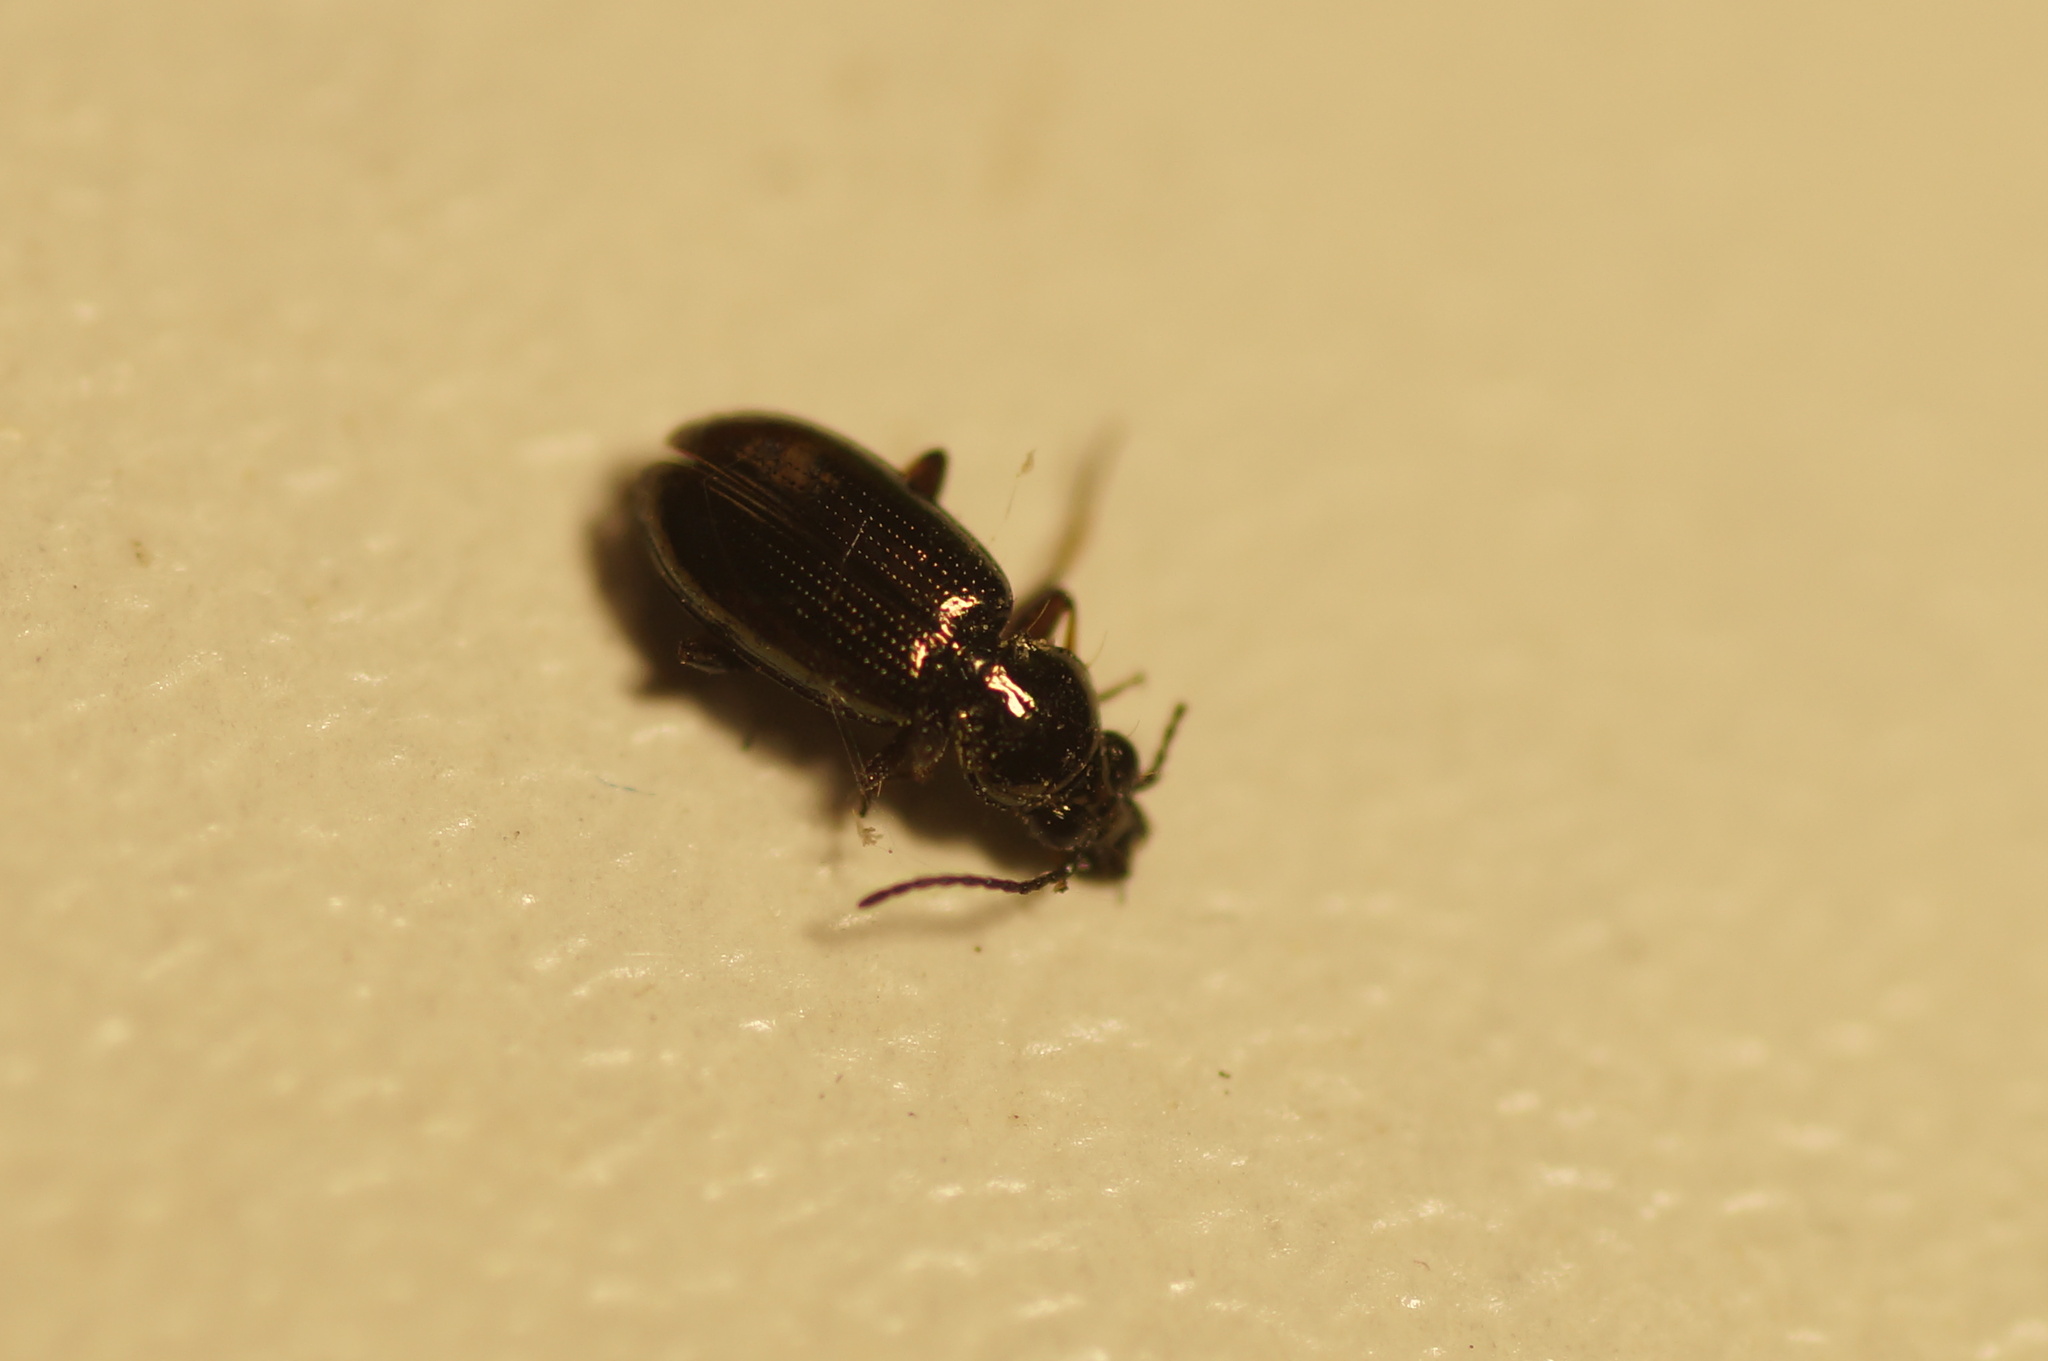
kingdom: Animalia
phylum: Arthropoda
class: Insecta
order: Coleoptera
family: Carabidae
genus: Bembidion
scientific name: Bembidion lampros
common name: Shiny riverbank ground beetle
